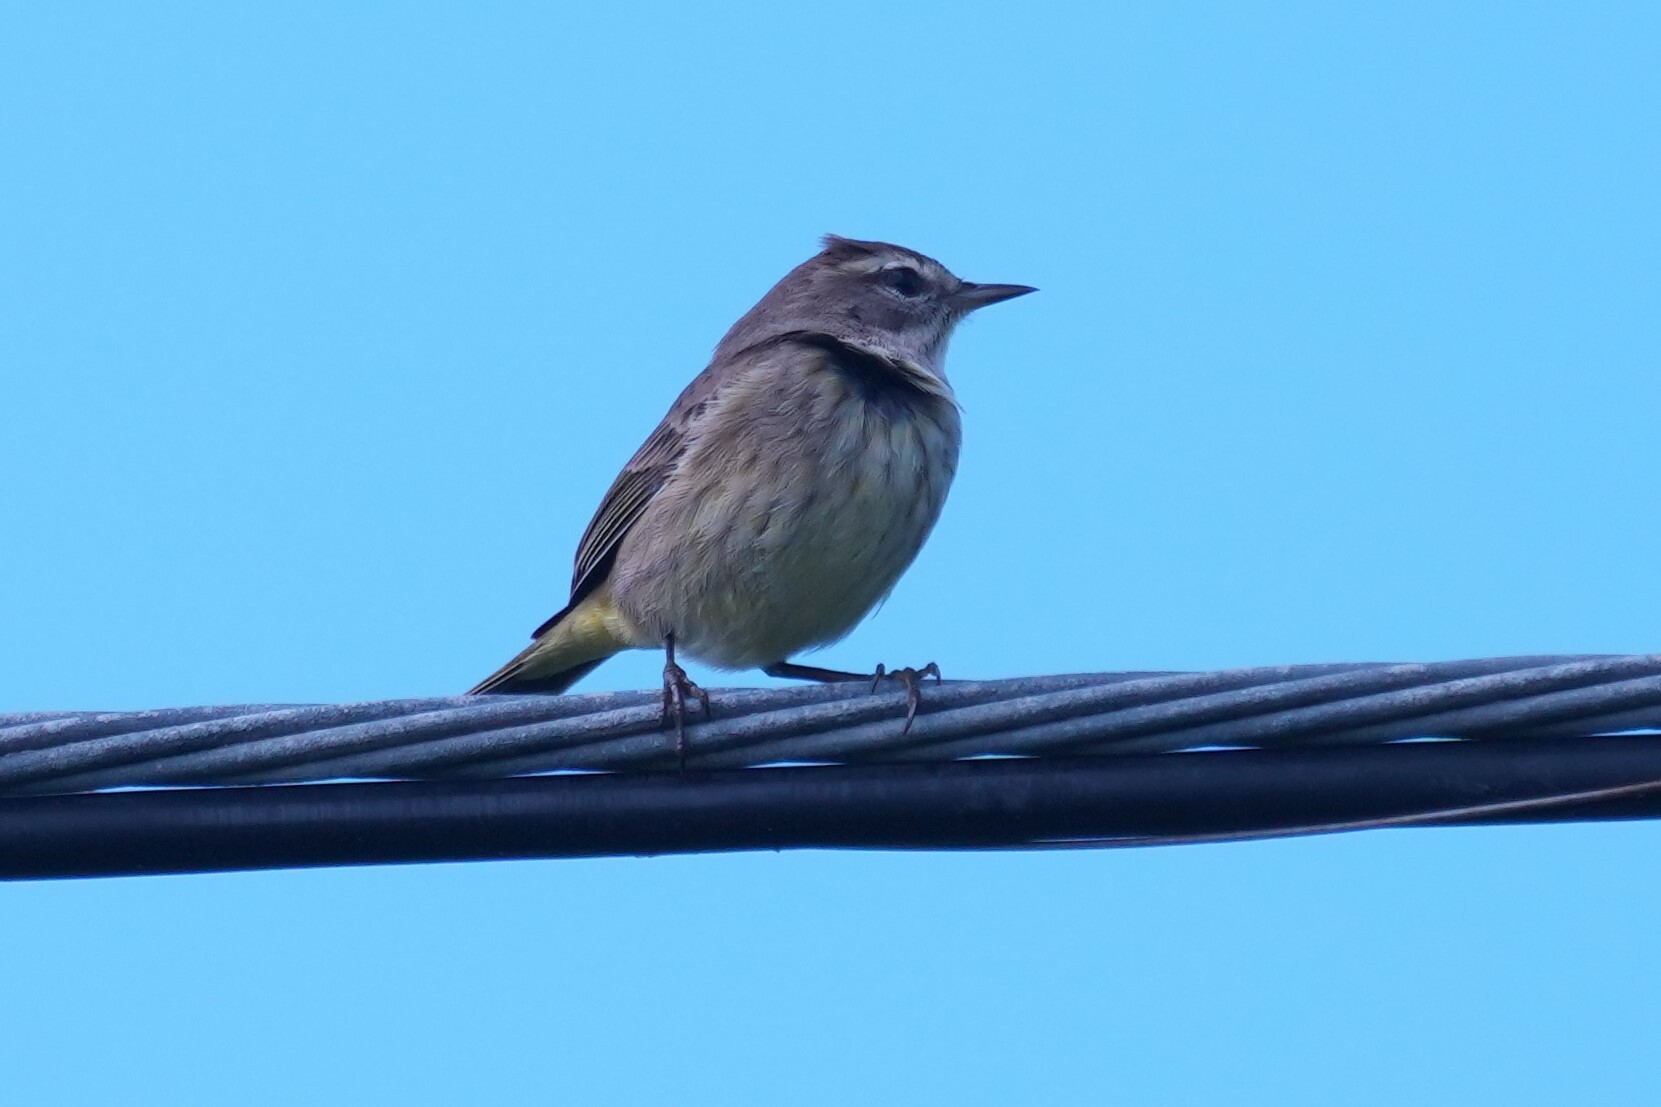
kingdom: Animalia
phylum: Chordata
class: Aves
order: Passeriformes
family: Parulidae
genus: Setophaga
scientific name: Setophaga palmarum
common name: Palm warbler
